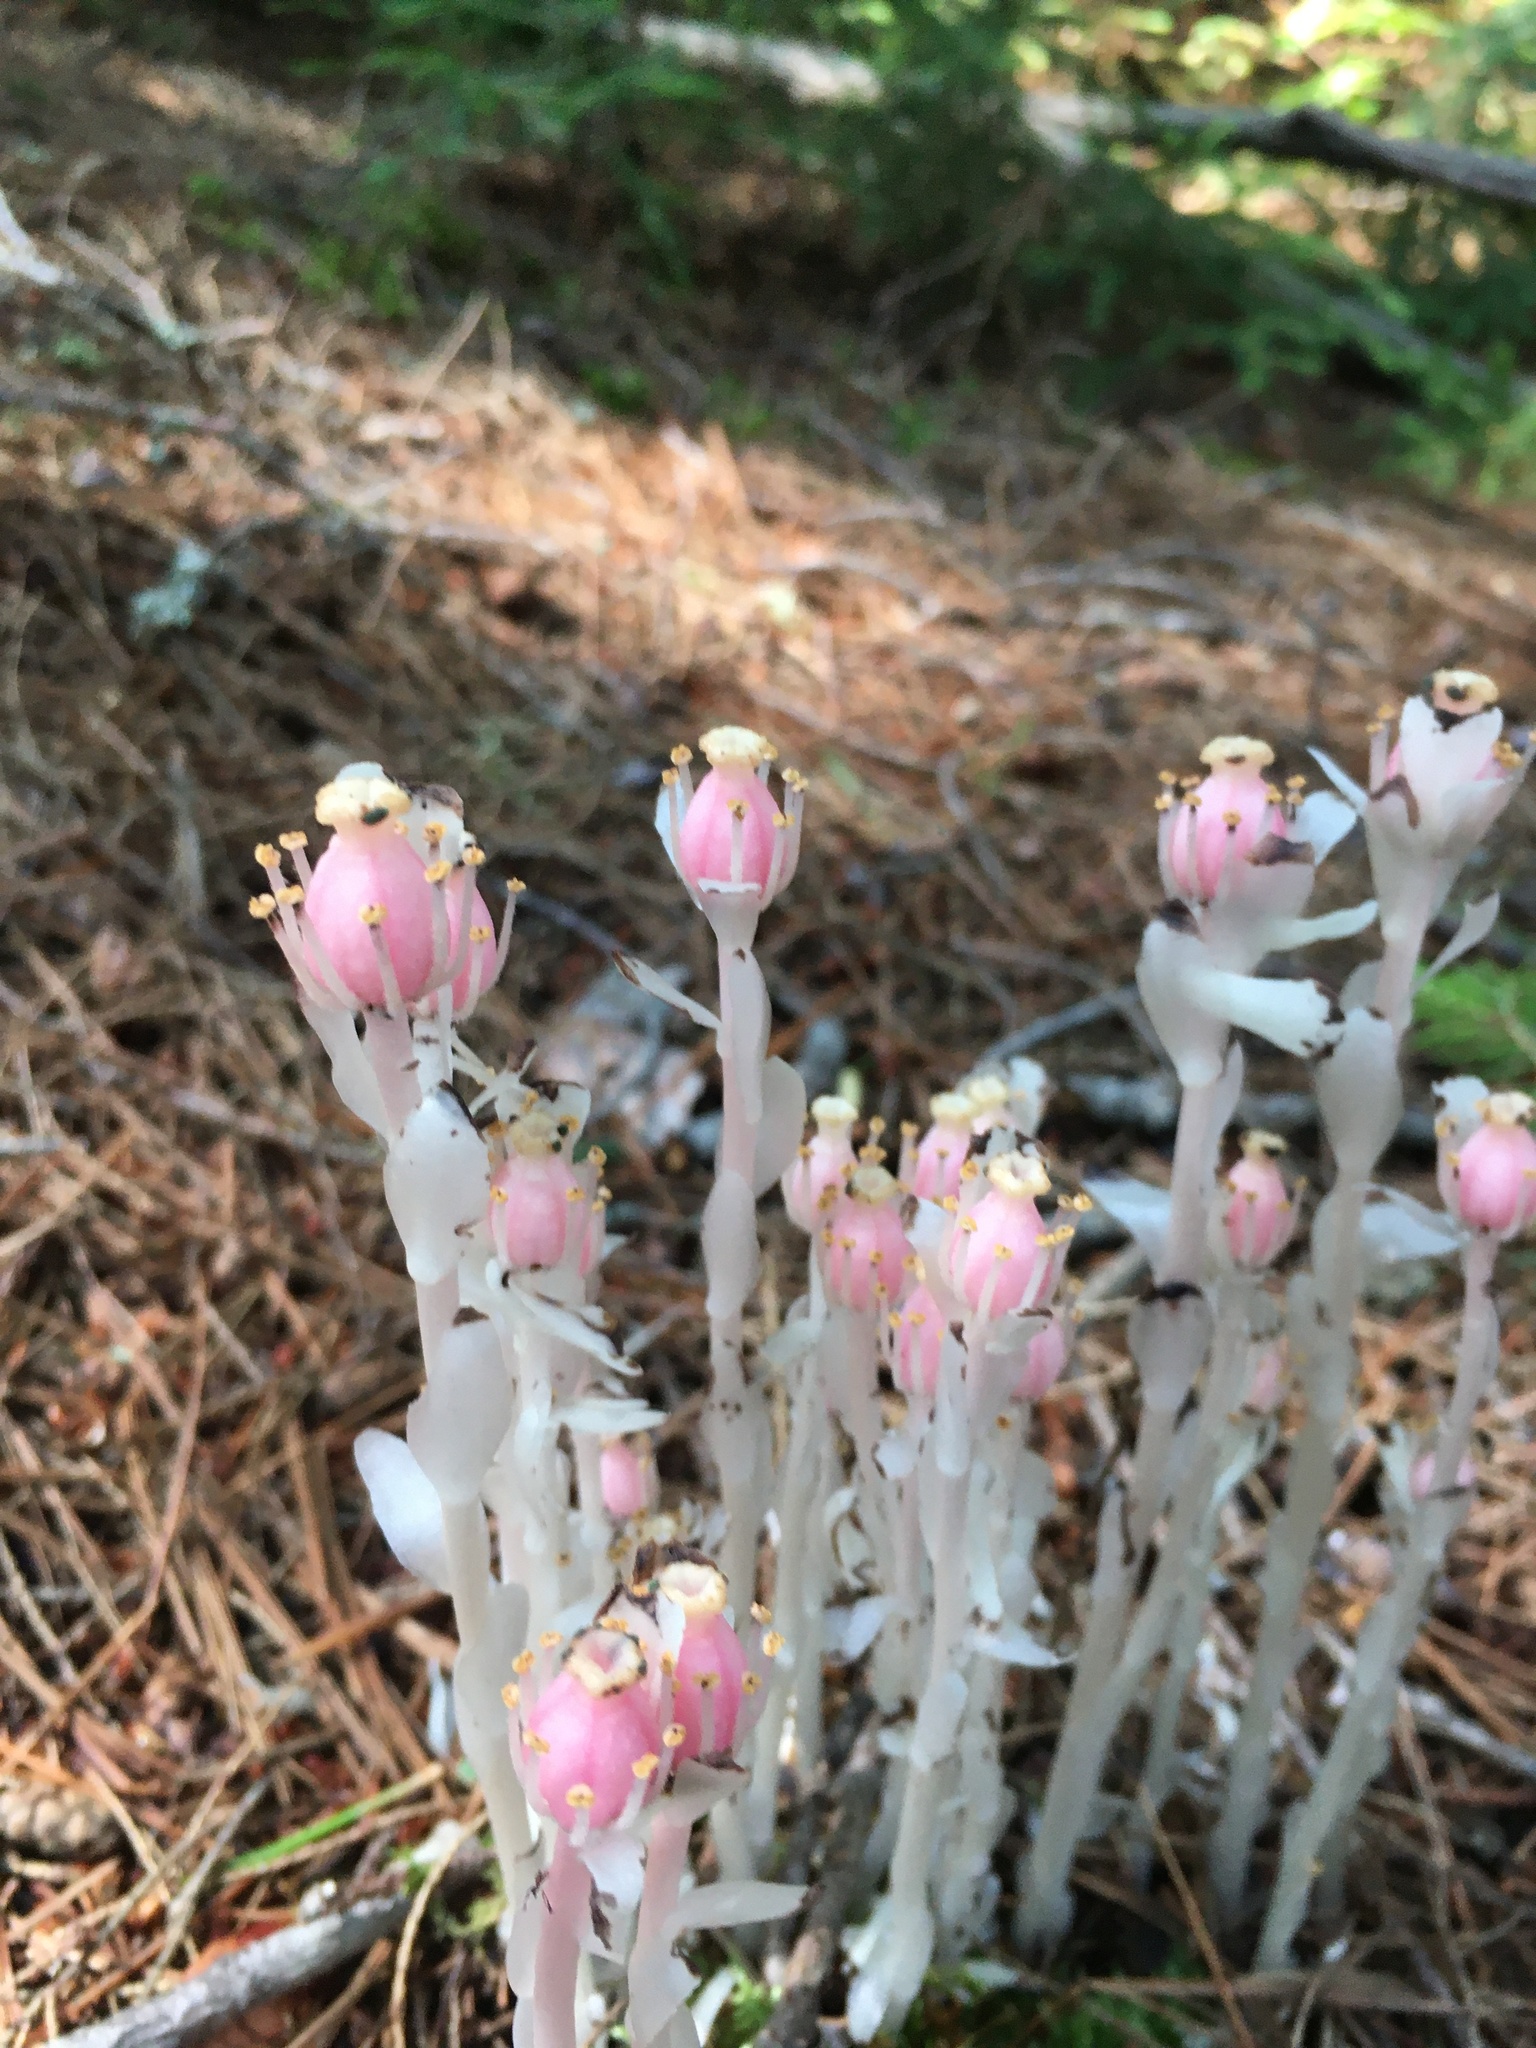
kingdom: Plantae
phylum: Tracheophyta
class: Magnoliopsida
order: Ericales
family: Ericaceae
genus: Monotropa
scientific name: Monotropa uniflora
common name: Convulsion root
